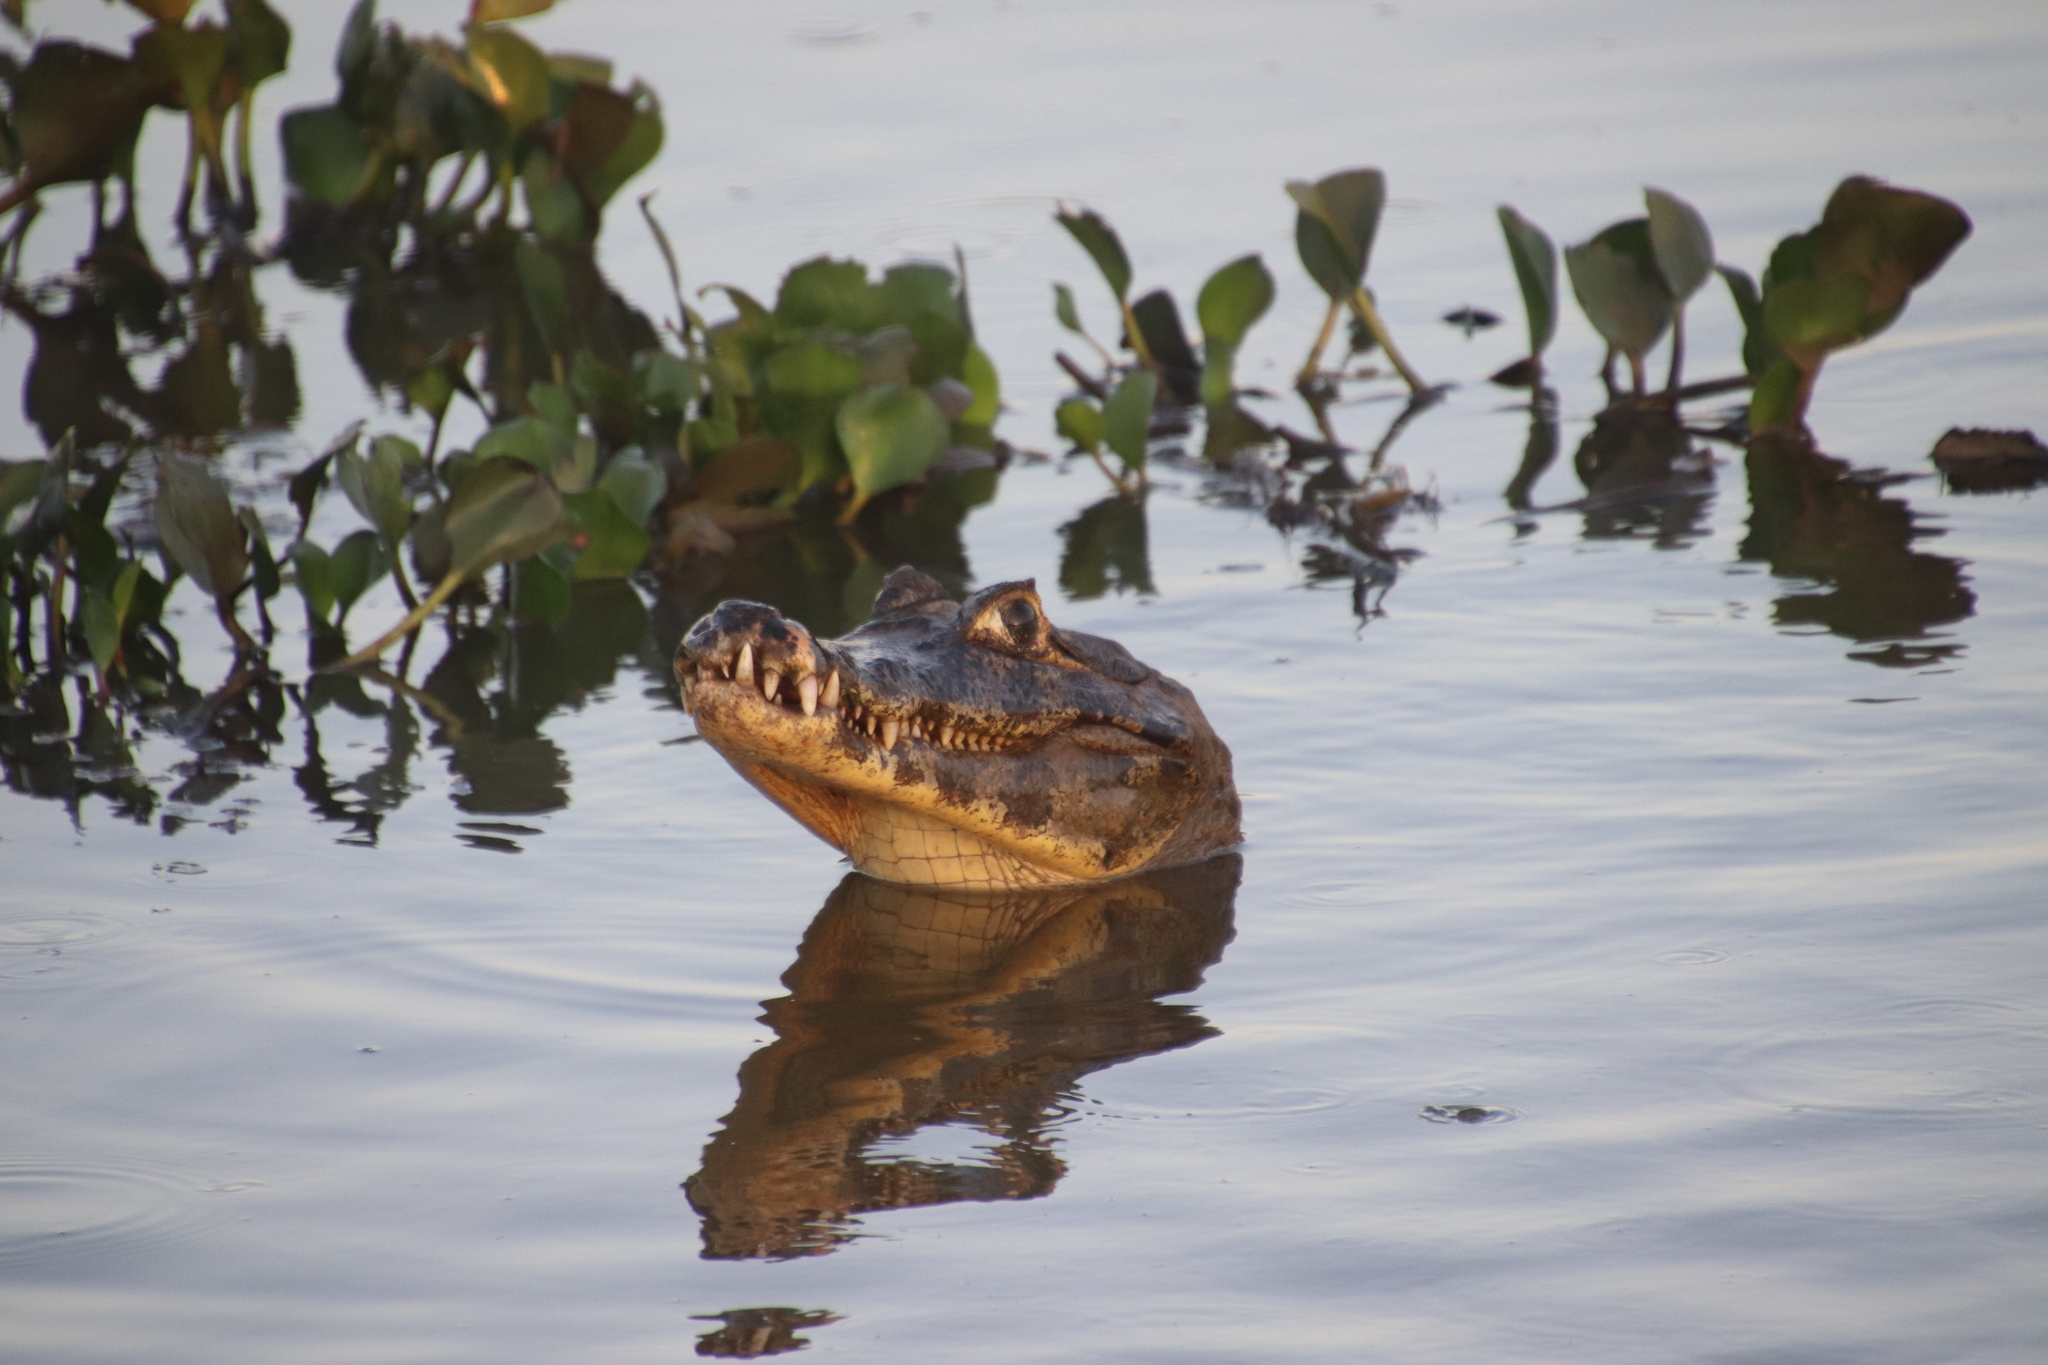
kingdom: Animalia
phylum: Chordata
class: Crocodylia
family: Alligatoridae
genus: Caiman
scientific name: Caiman yacare
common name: Yacare caiman
